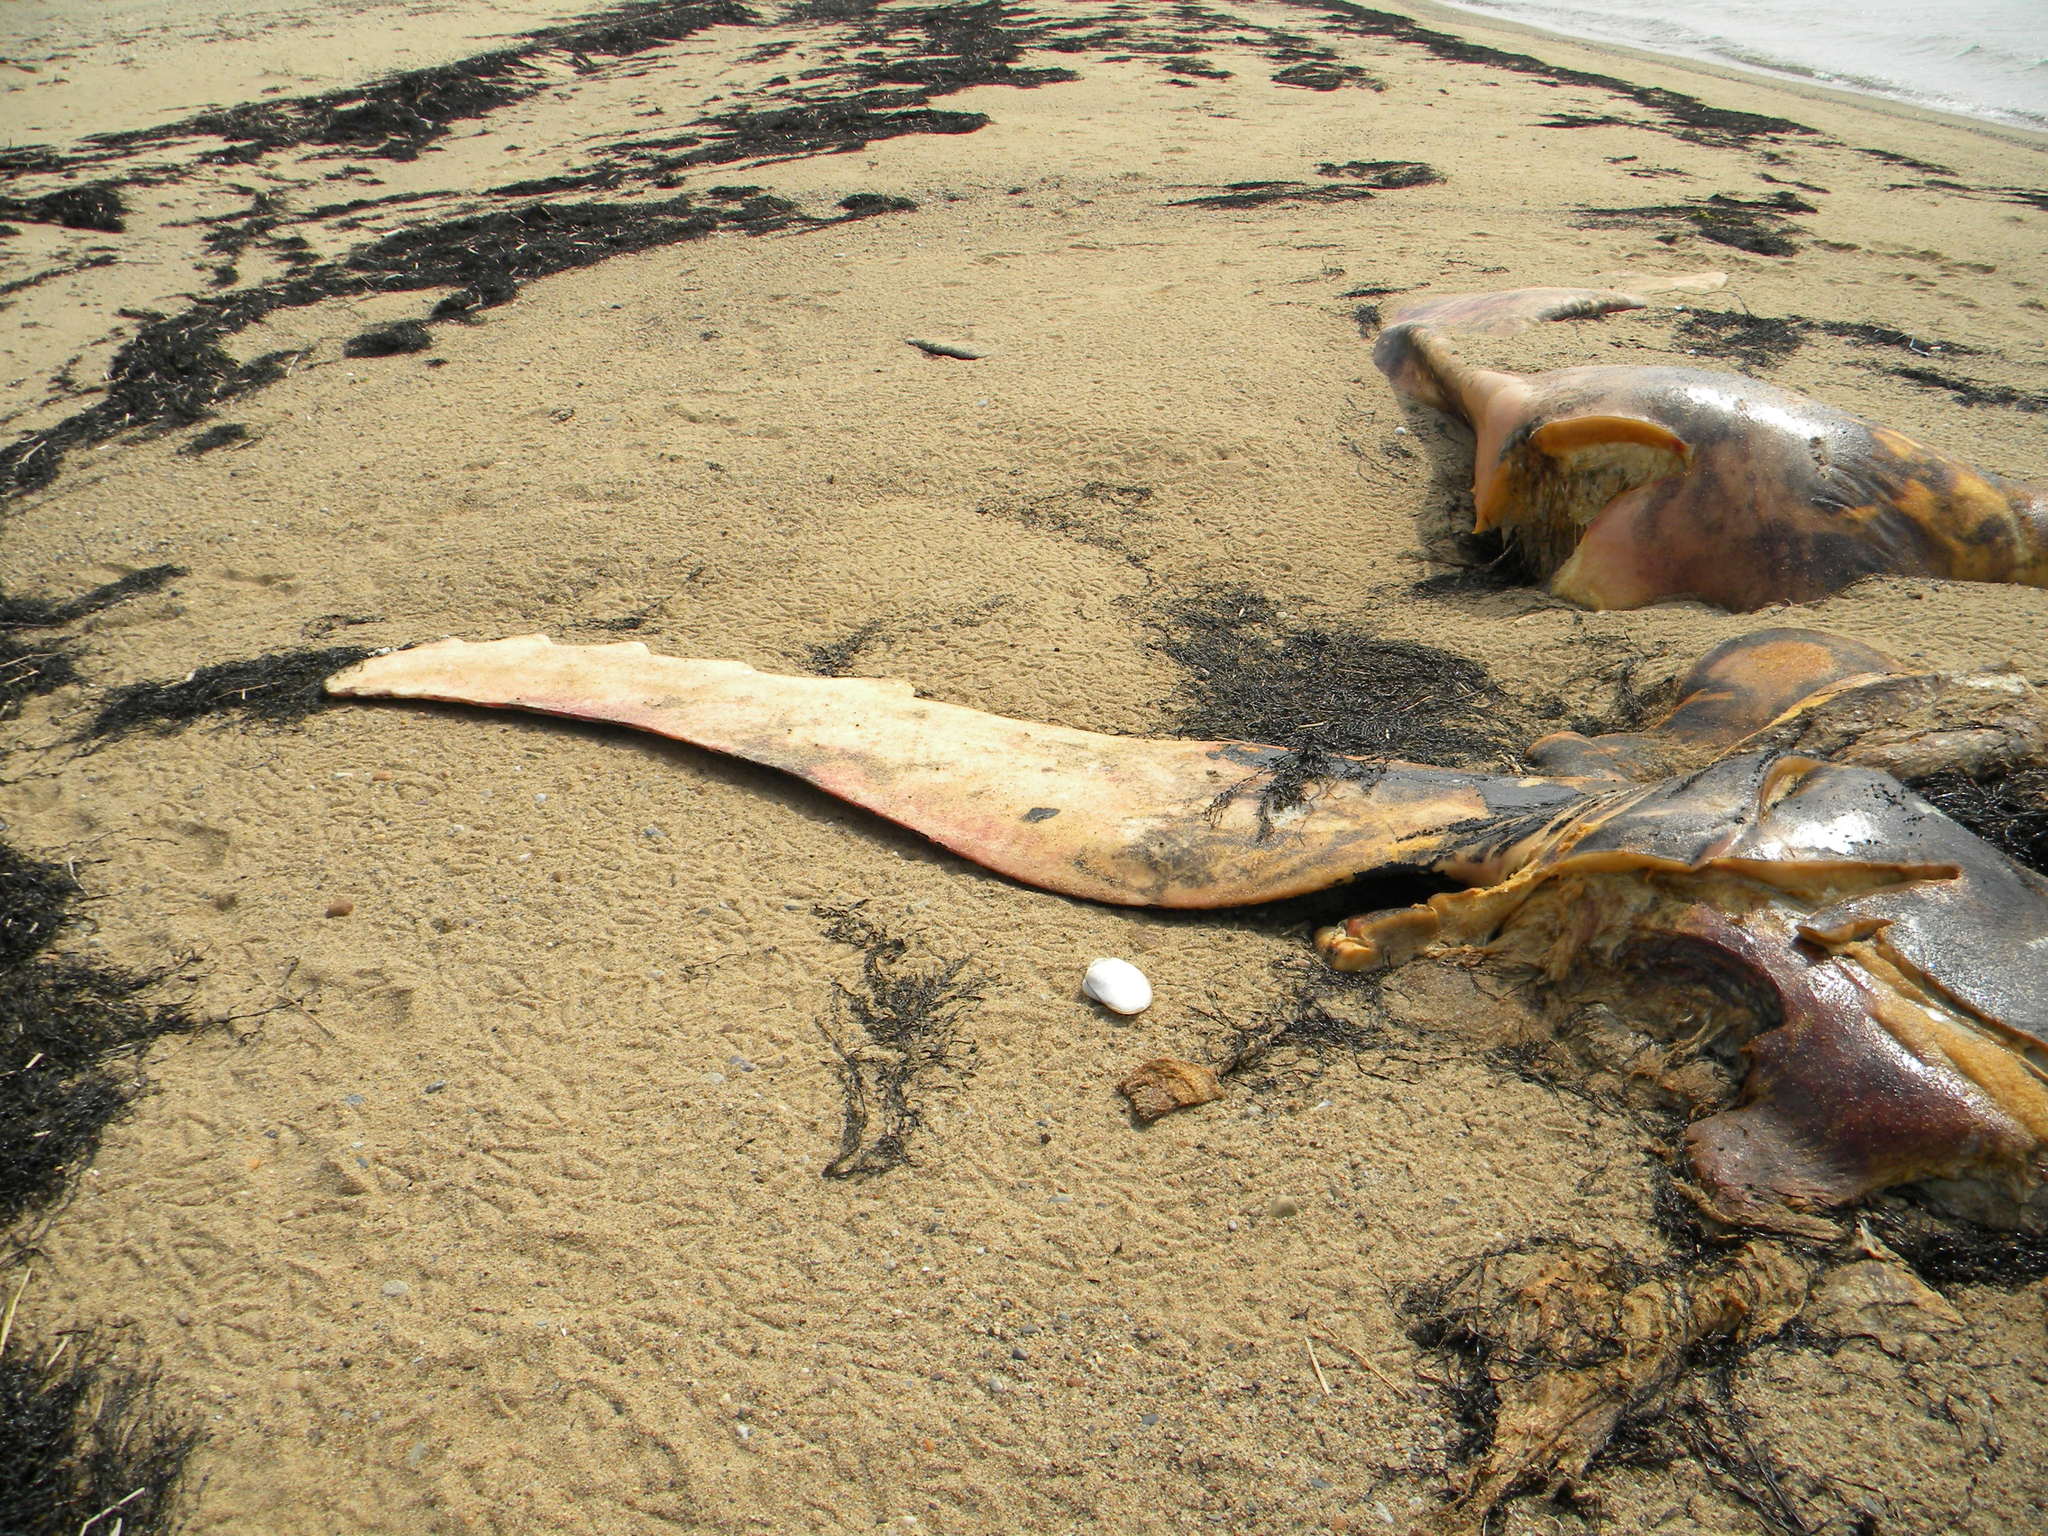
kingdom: Animalia
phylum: Chordata
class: Mammalia
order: Cetacea
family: Balaenopteridae
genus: Megaptera
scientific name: Megaptera novaeangliae
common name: Humpback whale
